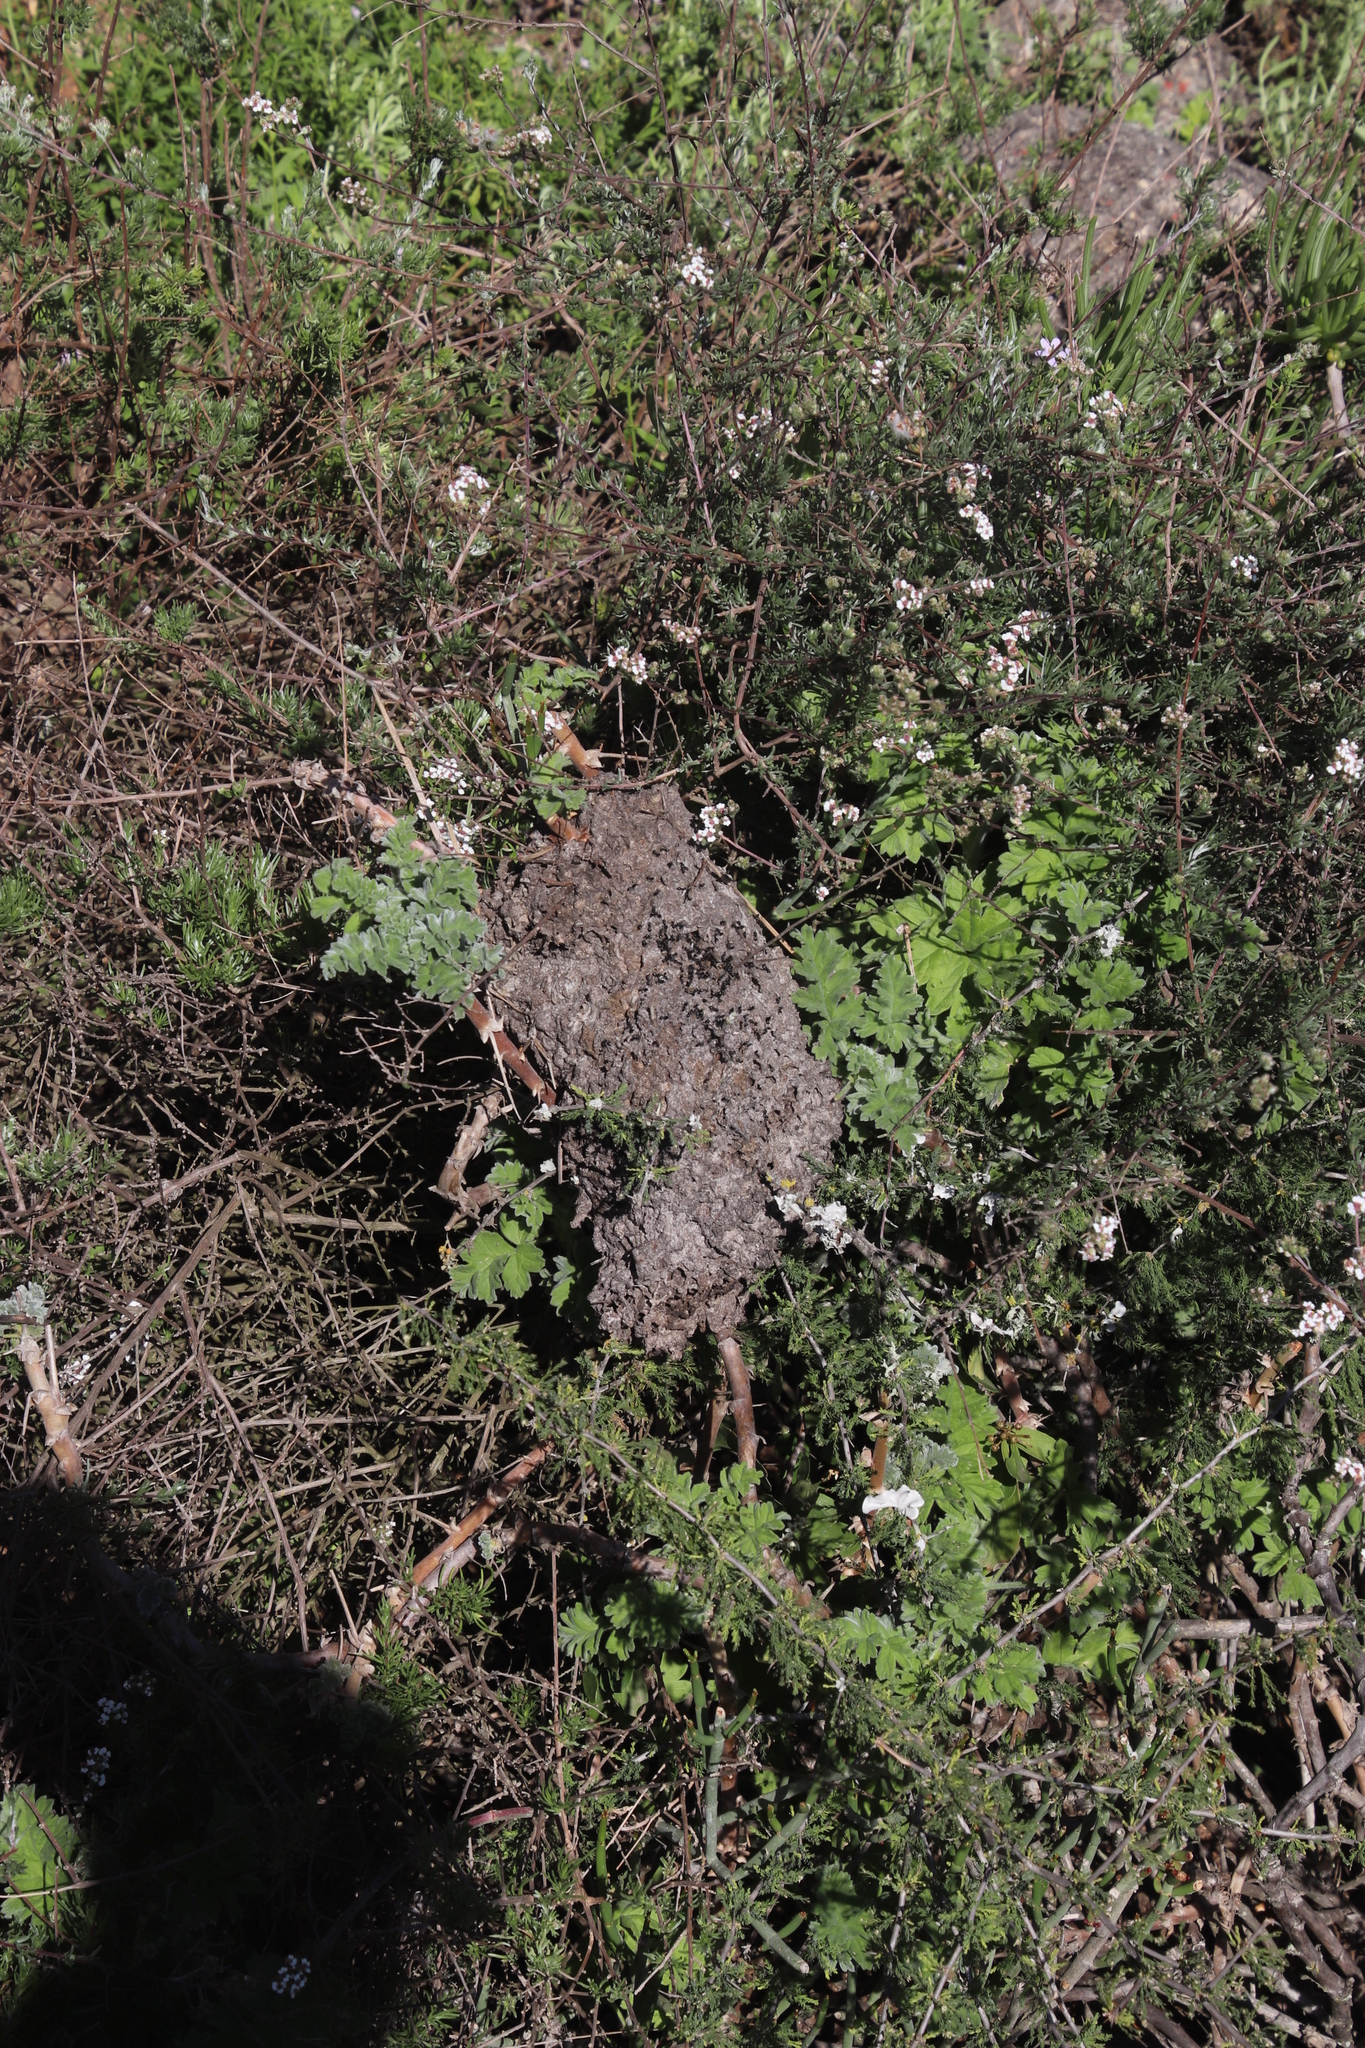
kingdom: Animalia
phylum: Arthropoda
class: Insecta
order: Hymenoptera
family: Formicidae
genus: Crematogaster
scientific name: Crematogaster peringueyi
